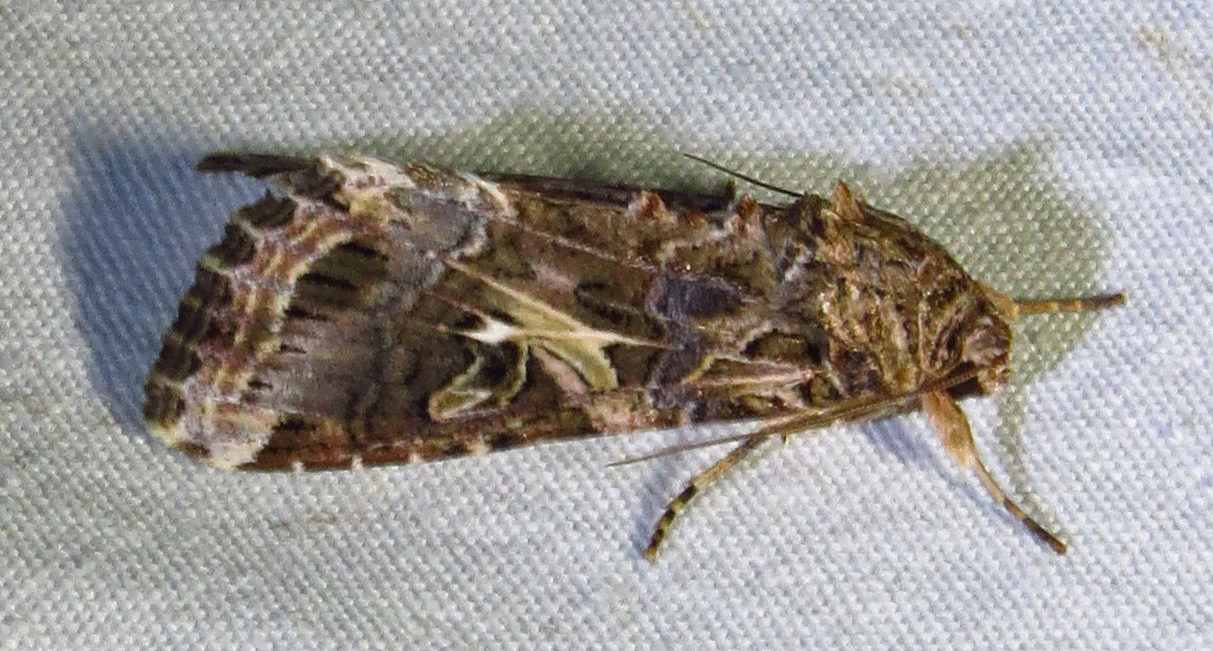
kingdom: Animalia
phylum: Arthropoda
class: Insecta
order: Lepidoptera
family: Noctuidae
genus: Spodoptera
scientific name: Spodoptera ornithogalli
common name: Yellow-striped armyworm
